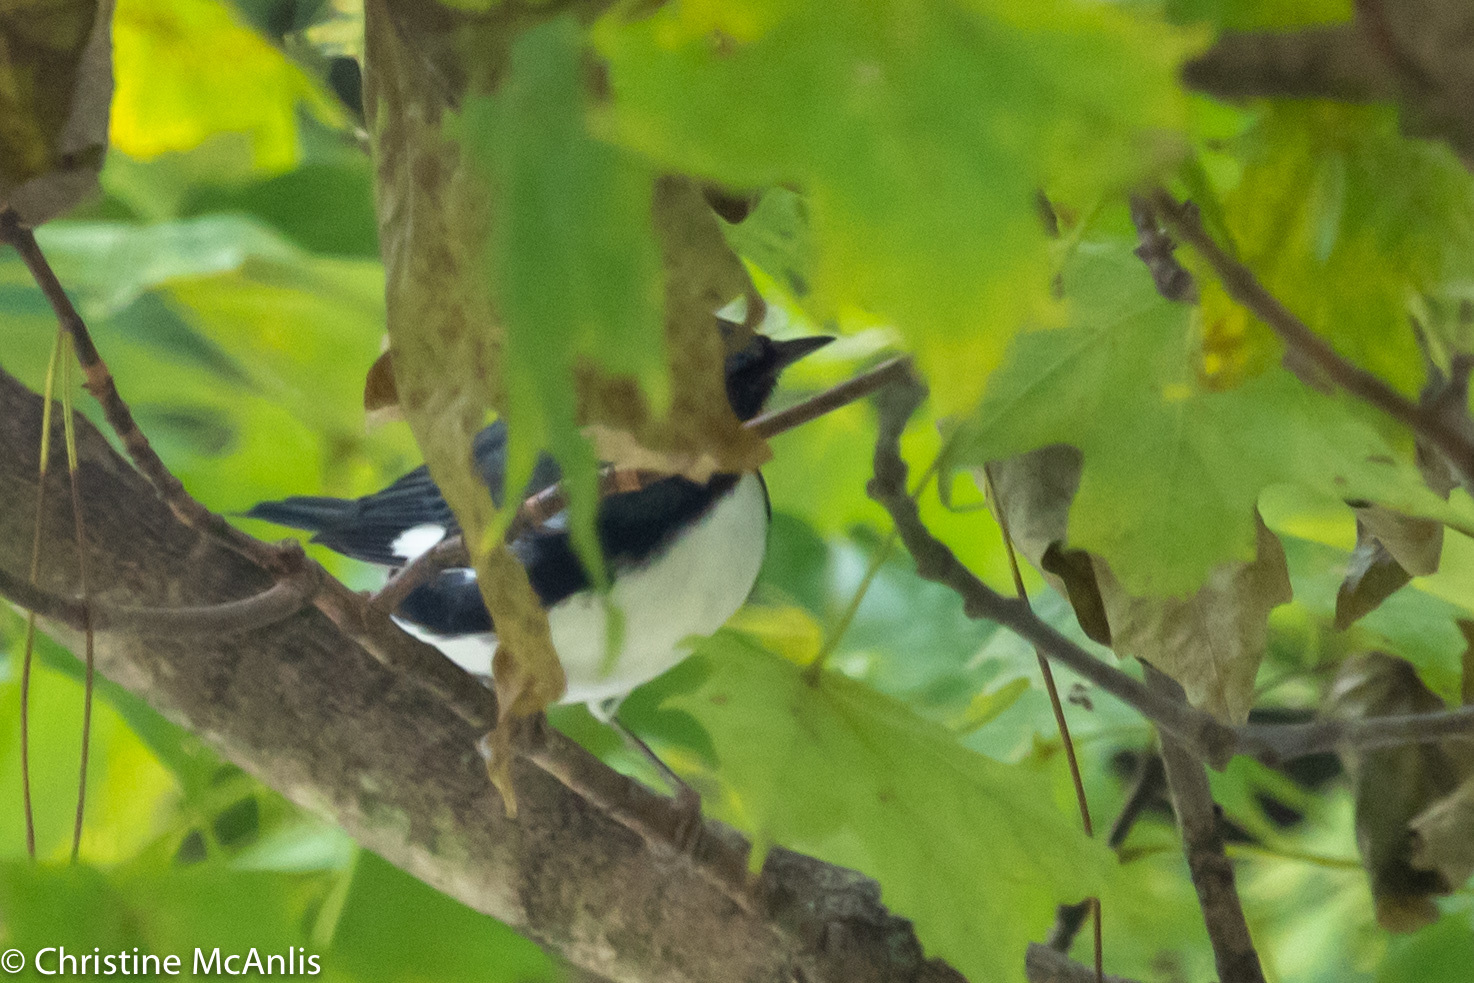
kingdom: Animalia
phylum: Chordata
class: Aves
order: Passeriformes
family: Parulidae
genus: Setophaga
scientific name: Setophaga caerulescens
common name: Black-throated blue warbler
